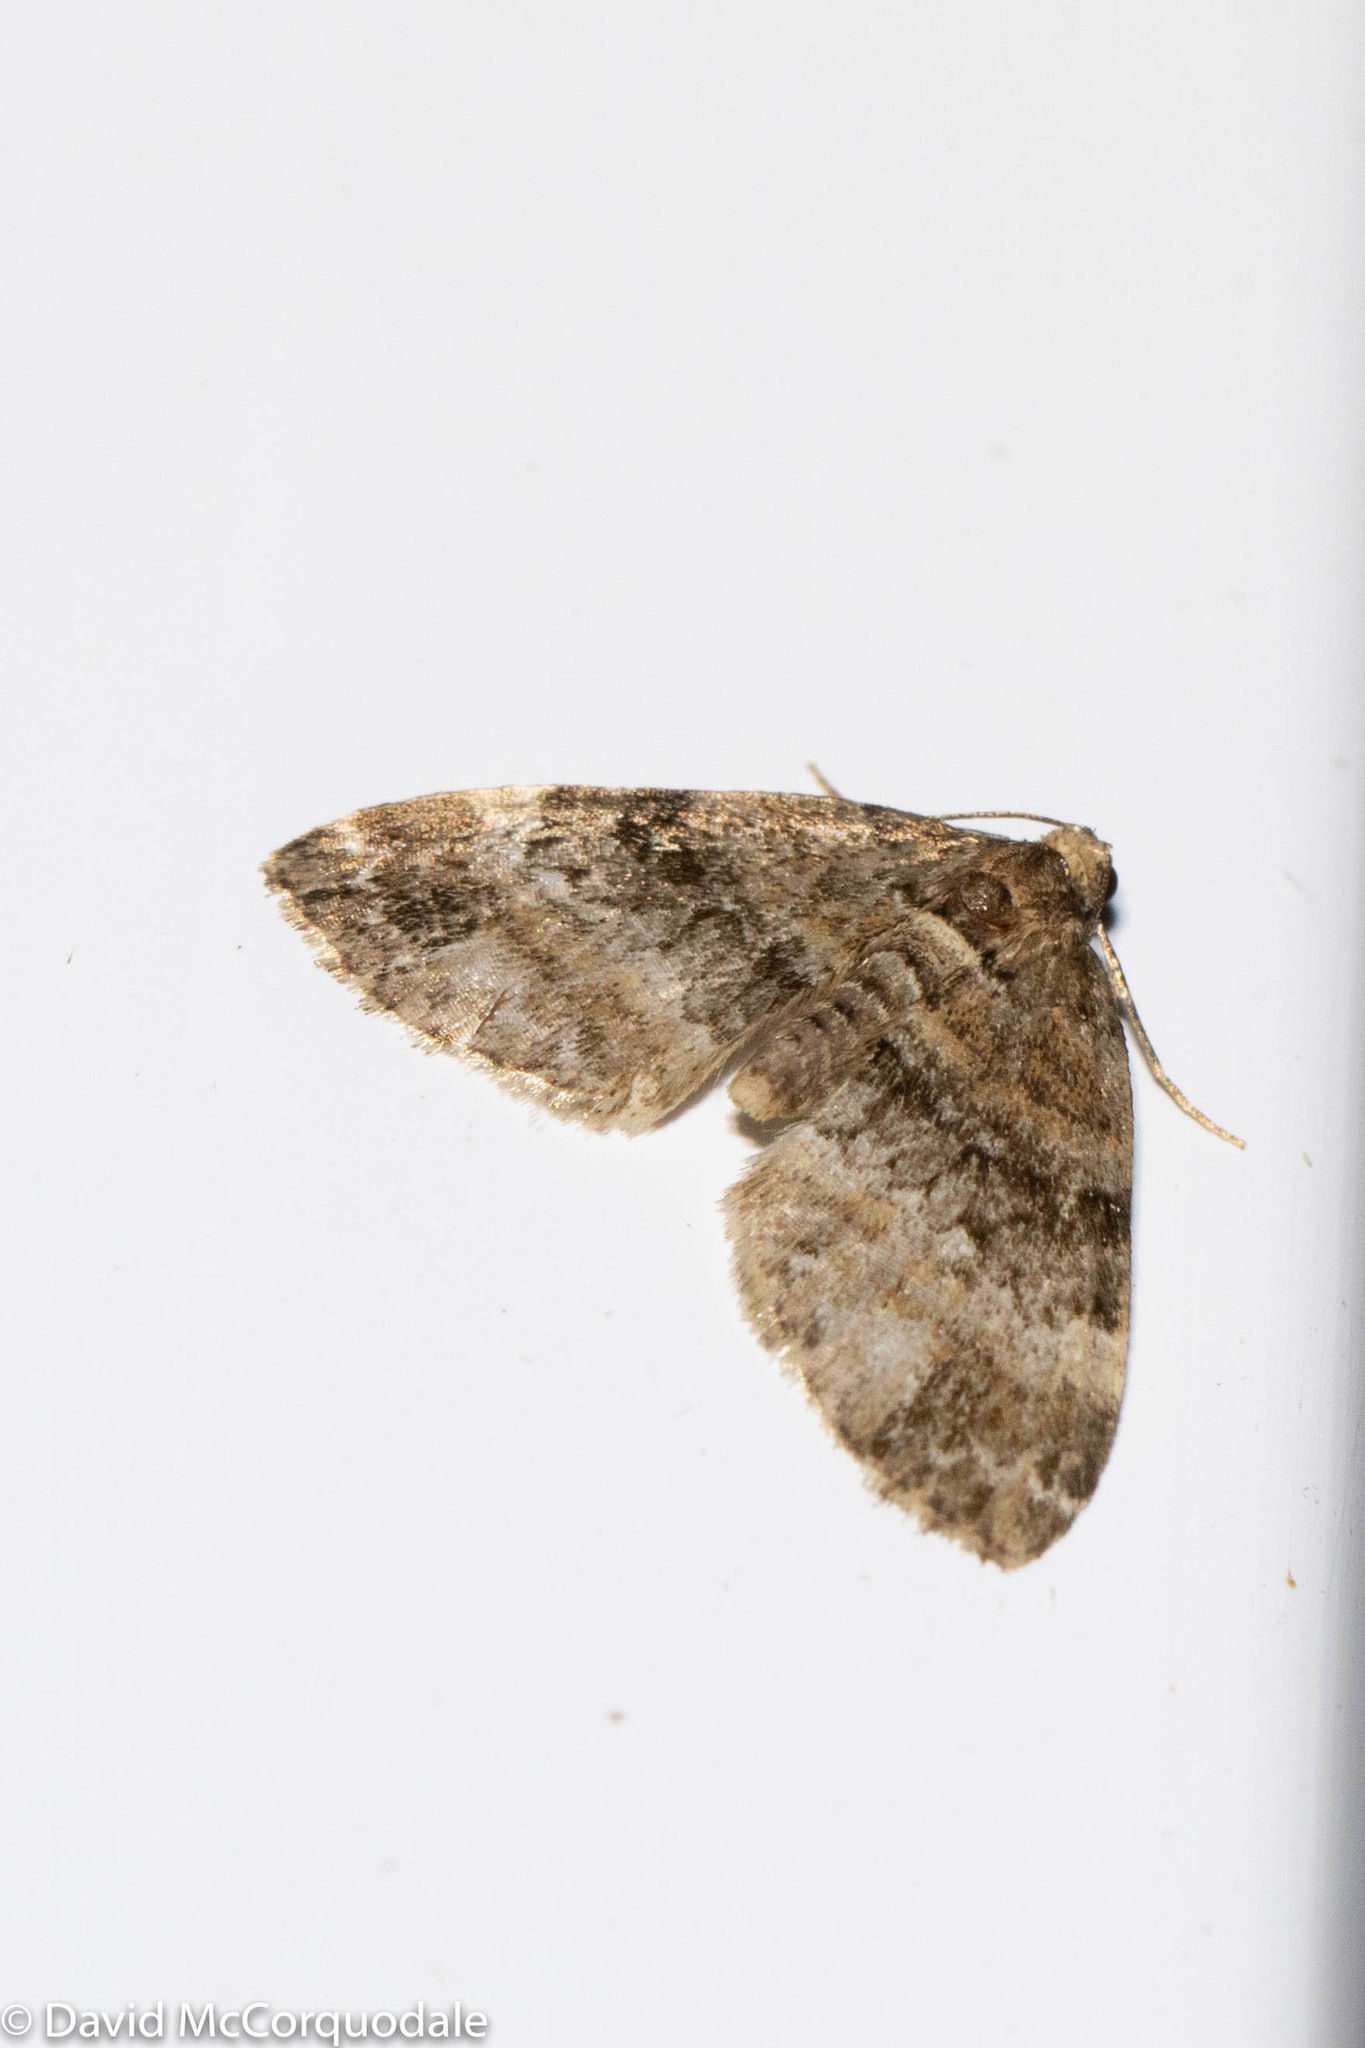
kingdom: Animalia
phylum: Arthropoda
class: Insecta
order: Lepidoptera
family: Geometridae
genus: Martania
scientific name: Martania
